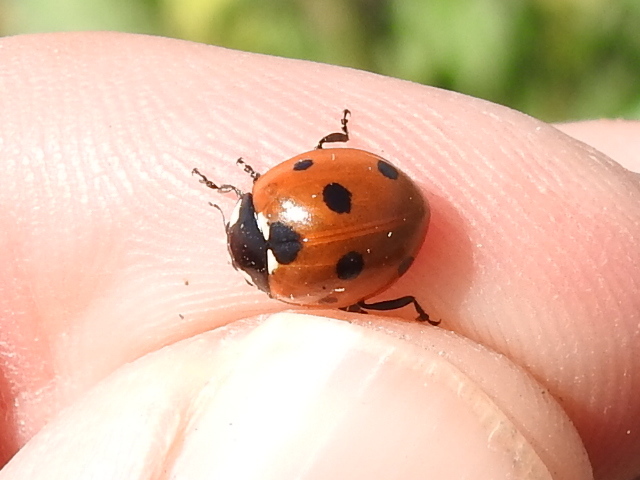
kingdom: Animalia
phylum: Arthropoda
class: Insecta
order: Coleoptera
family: Coccinellidae
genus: Coccinella
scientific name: Coccinella septempunctata
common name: Sevenspotted lady beetle
